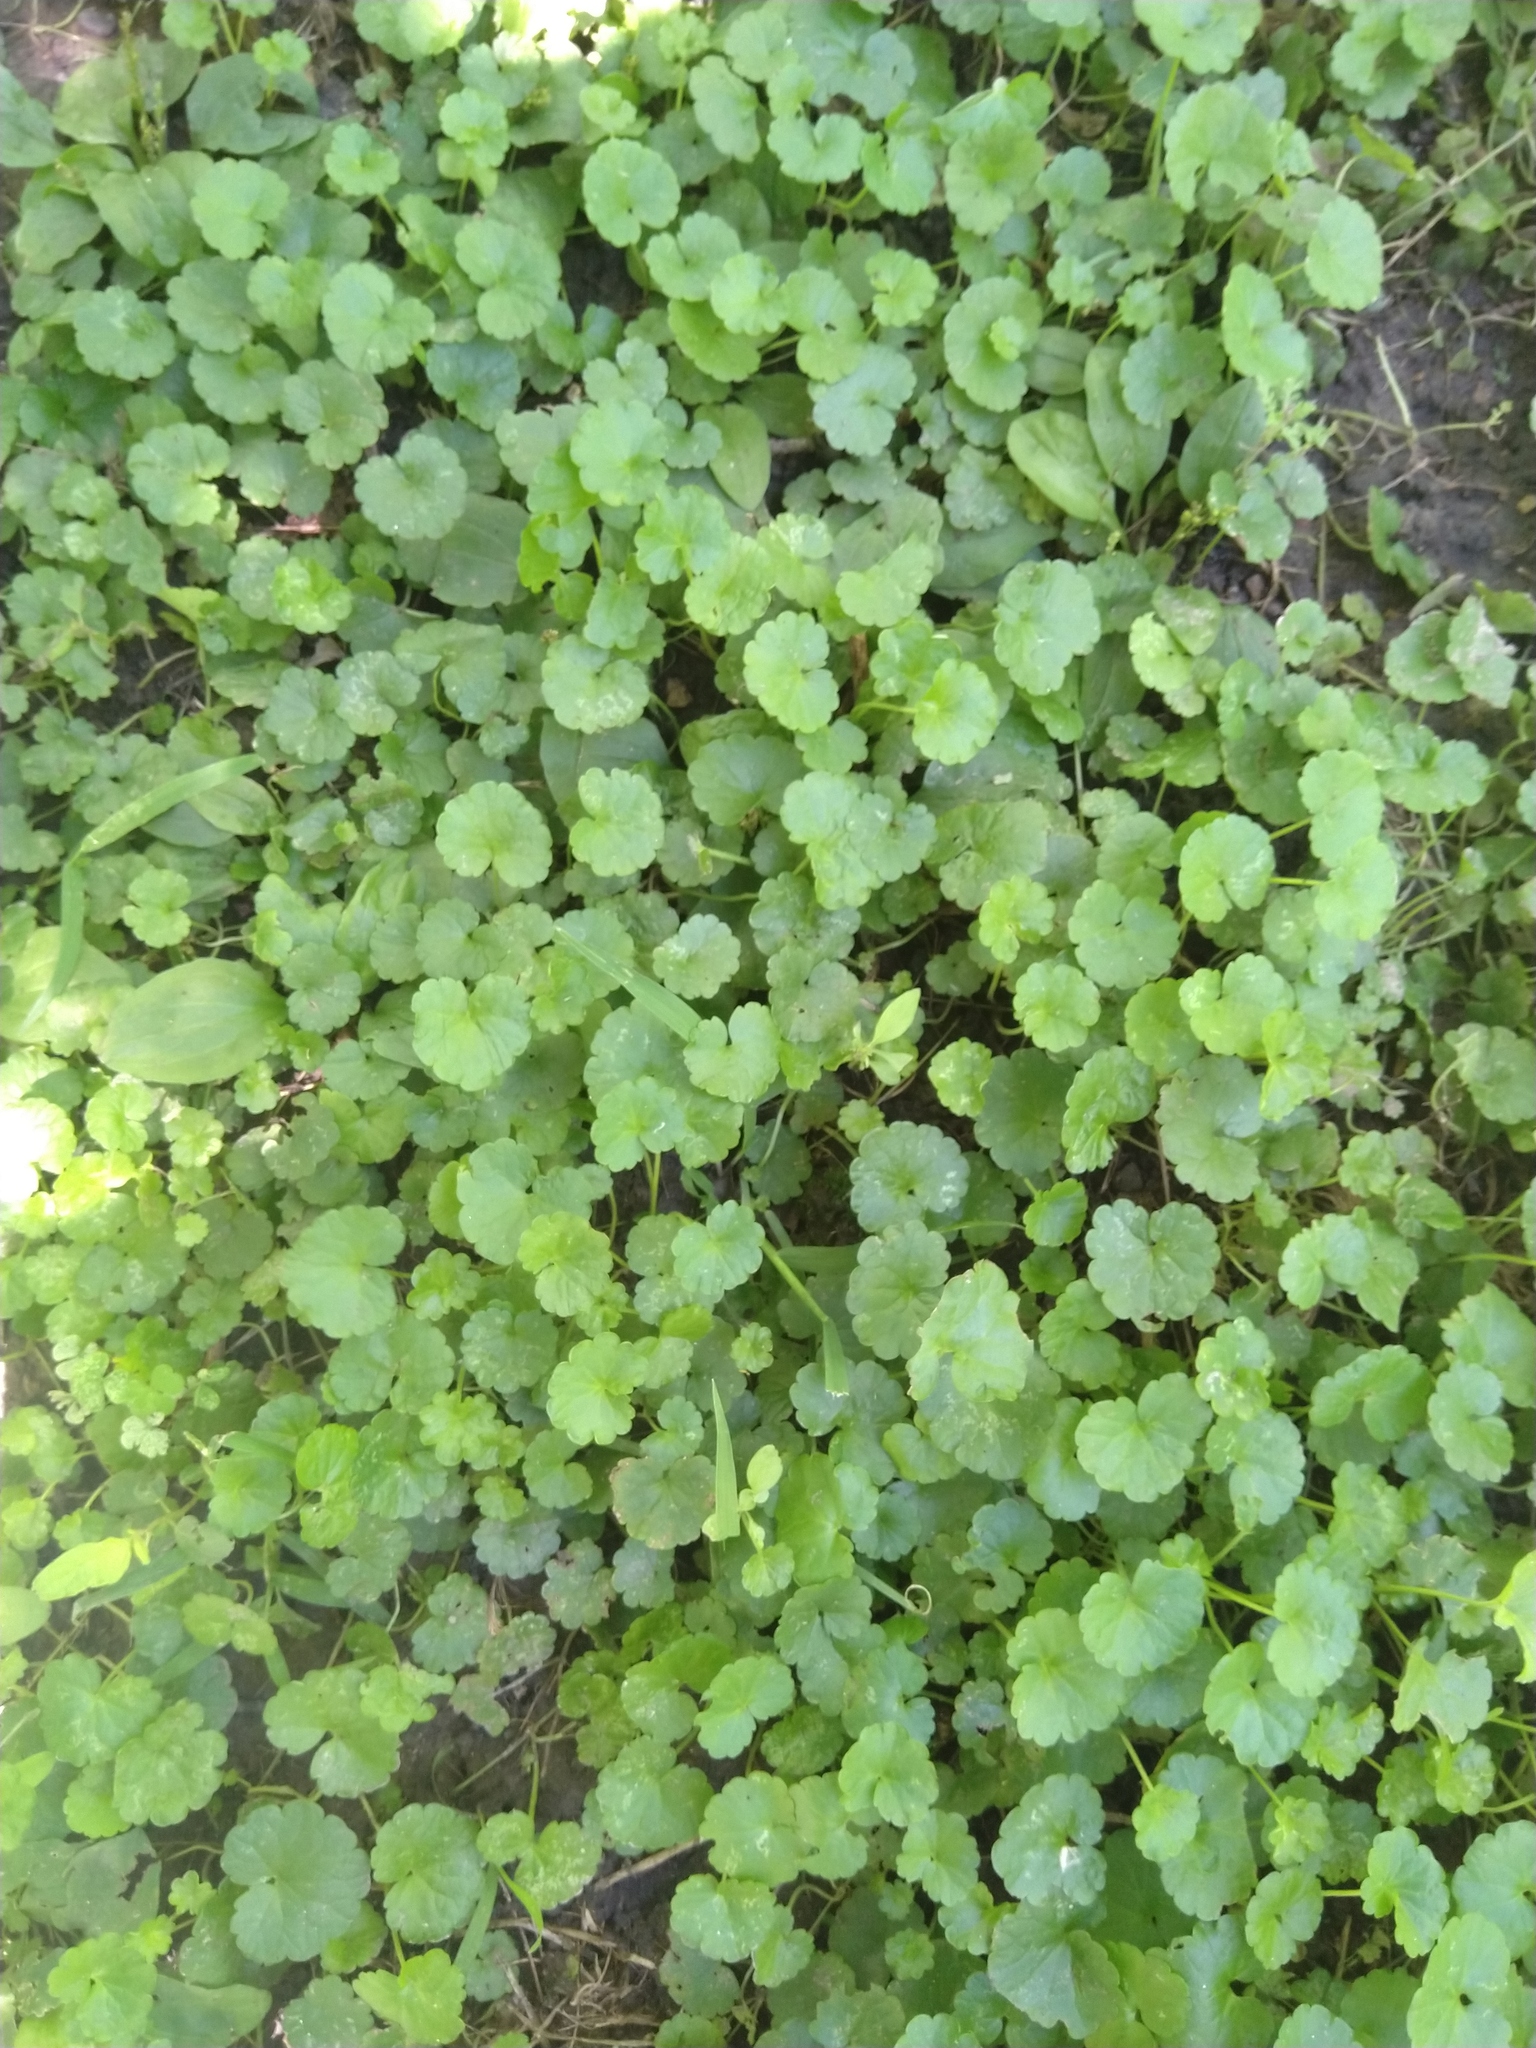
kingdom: Plantae
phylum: Tracheophyta
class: Magnoliopsida
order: Lamiales
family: Lamiaceae
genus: Glechoma
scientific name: Glechoma hederacea
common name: Ground ivy
